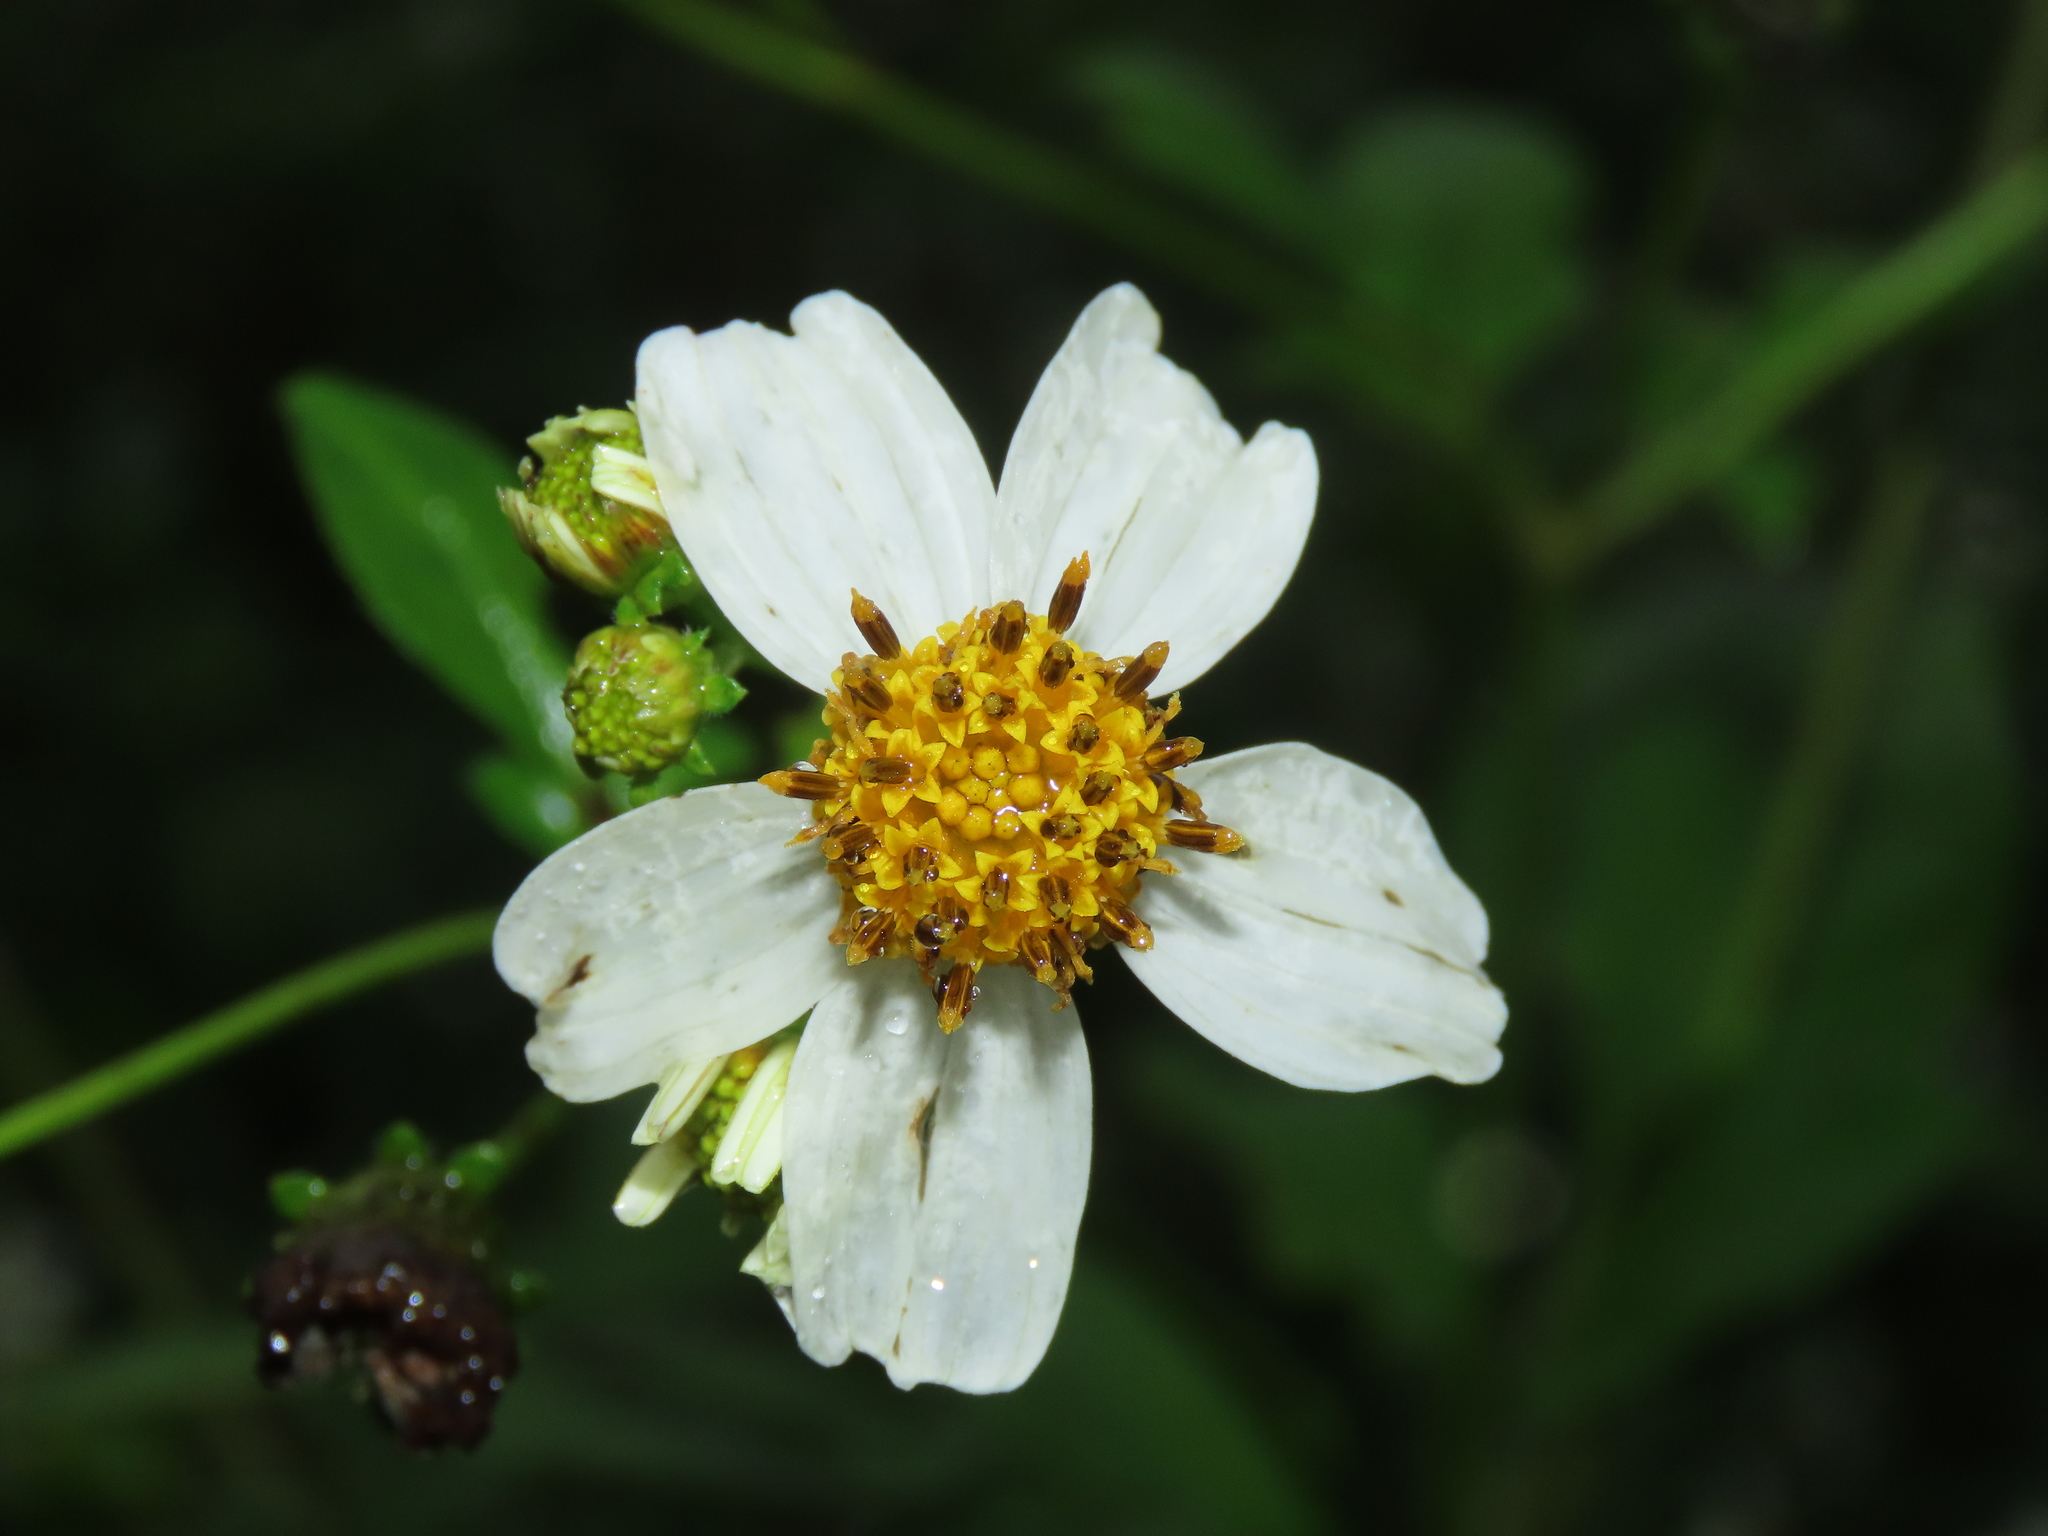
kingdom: Plantae
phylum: Tracheophyta
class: Magnoliopsida
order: Asterales
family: Asteraceae
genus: Bidens
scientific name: Bidens alba
